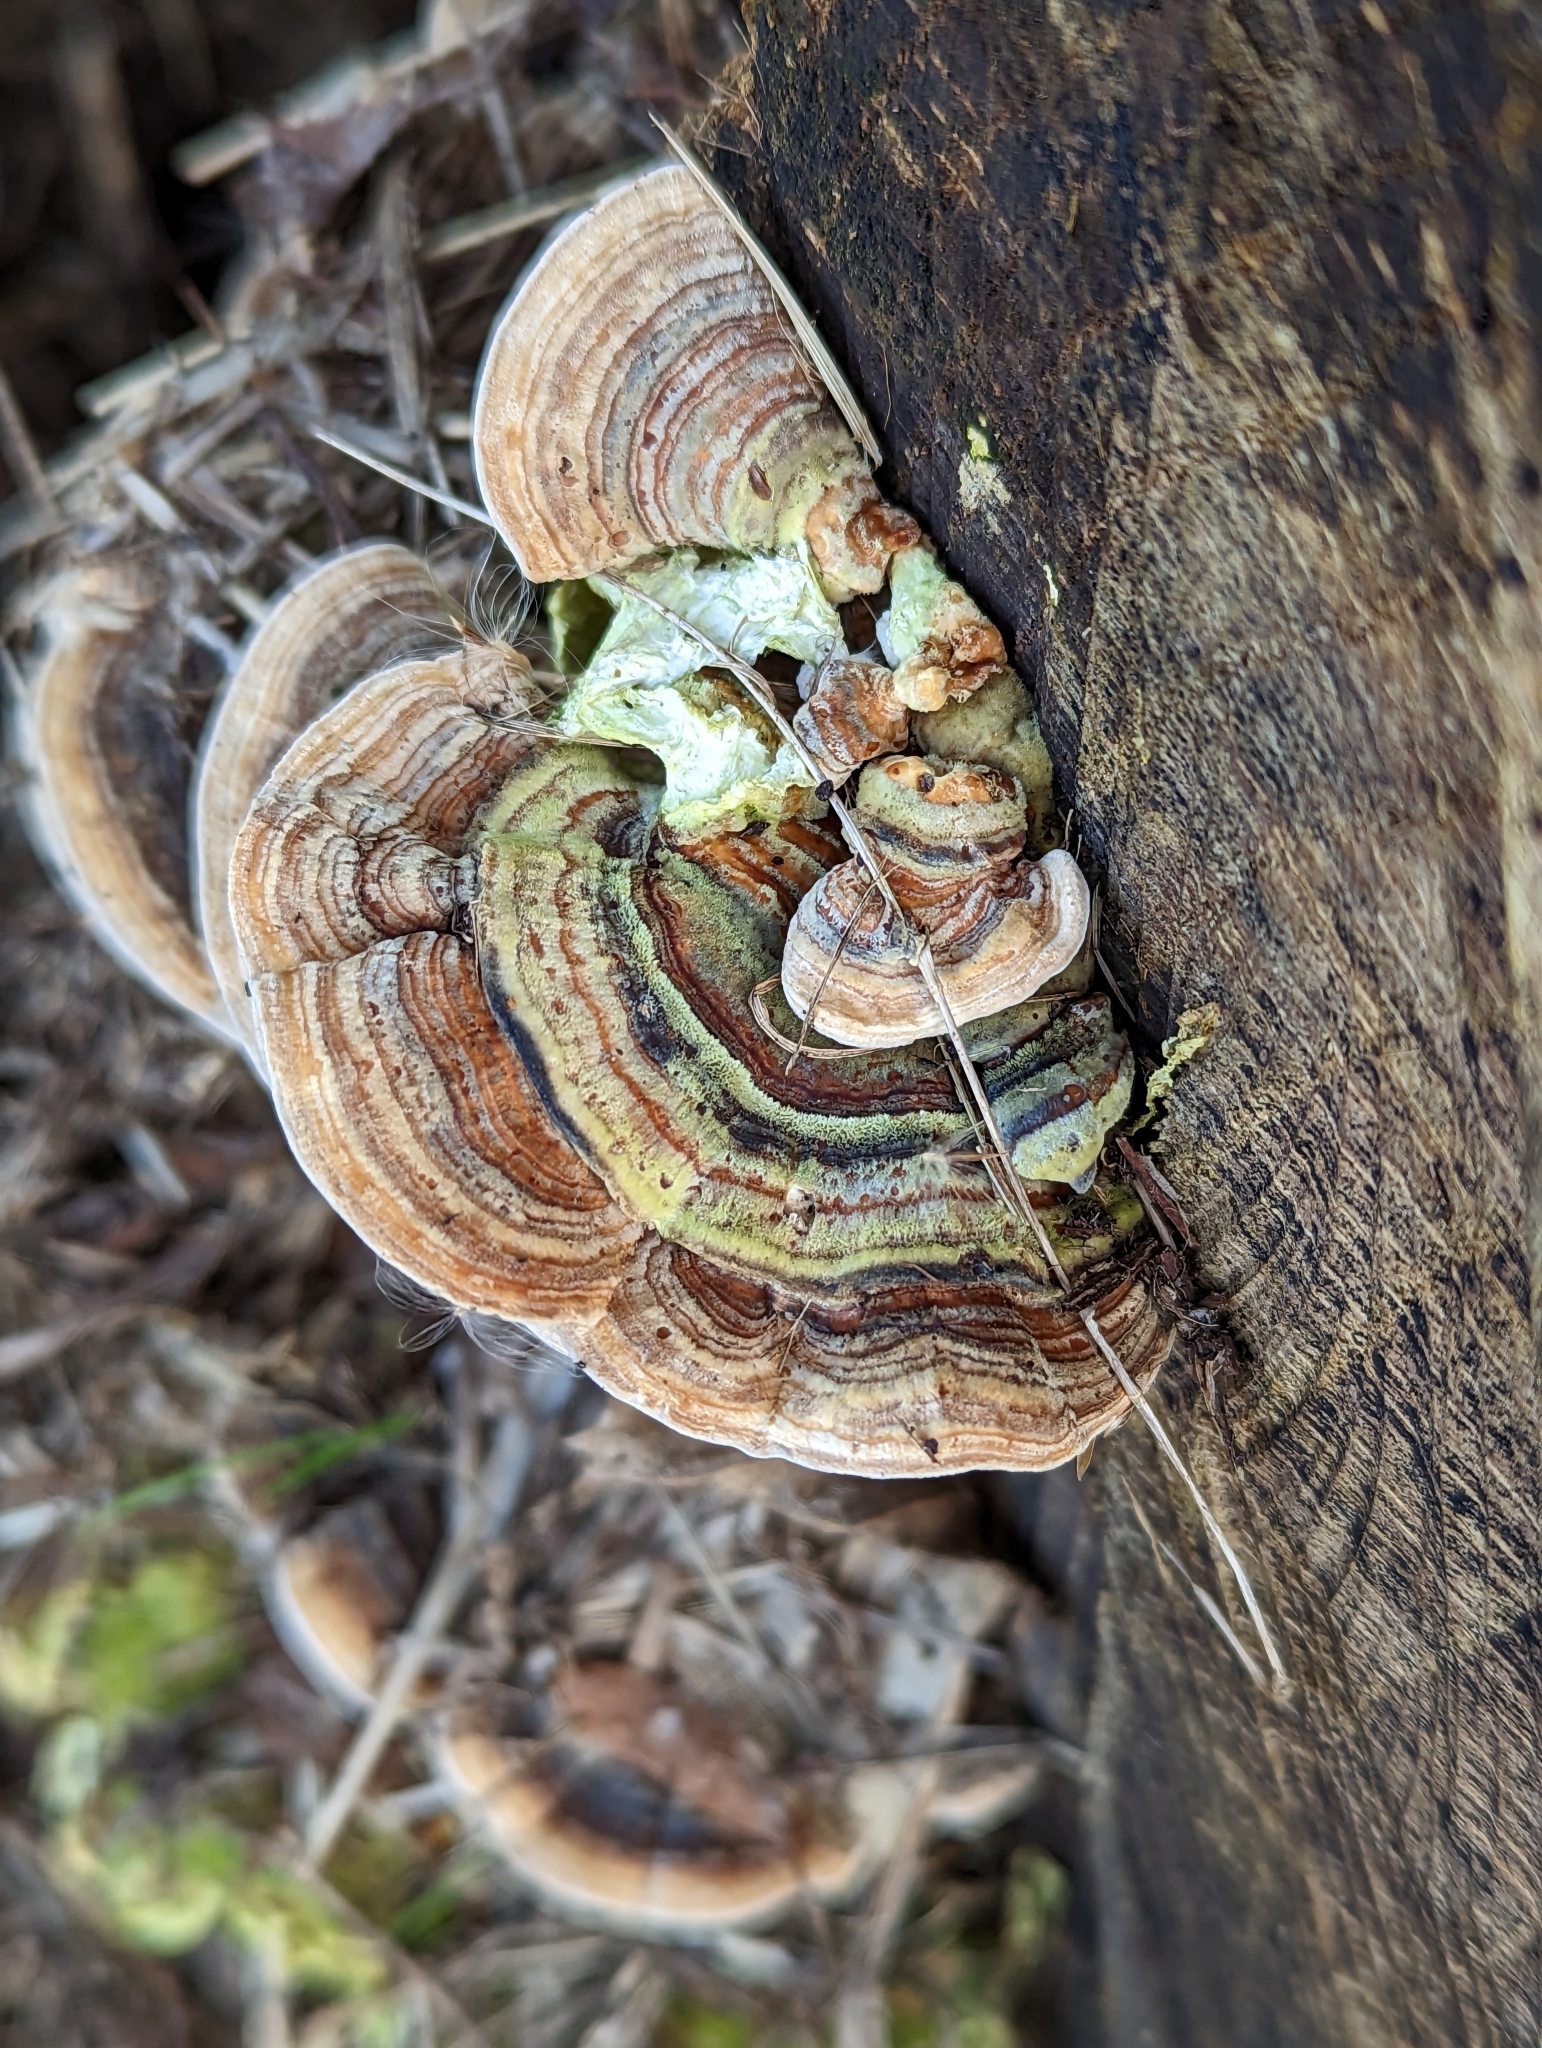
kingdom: Fungi
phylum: Basidiomycota
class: Agaricomycetes
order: Polyporales
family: Polyporaceae
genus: Trametes
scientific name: Trametes versicolor
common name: Turkeytail
